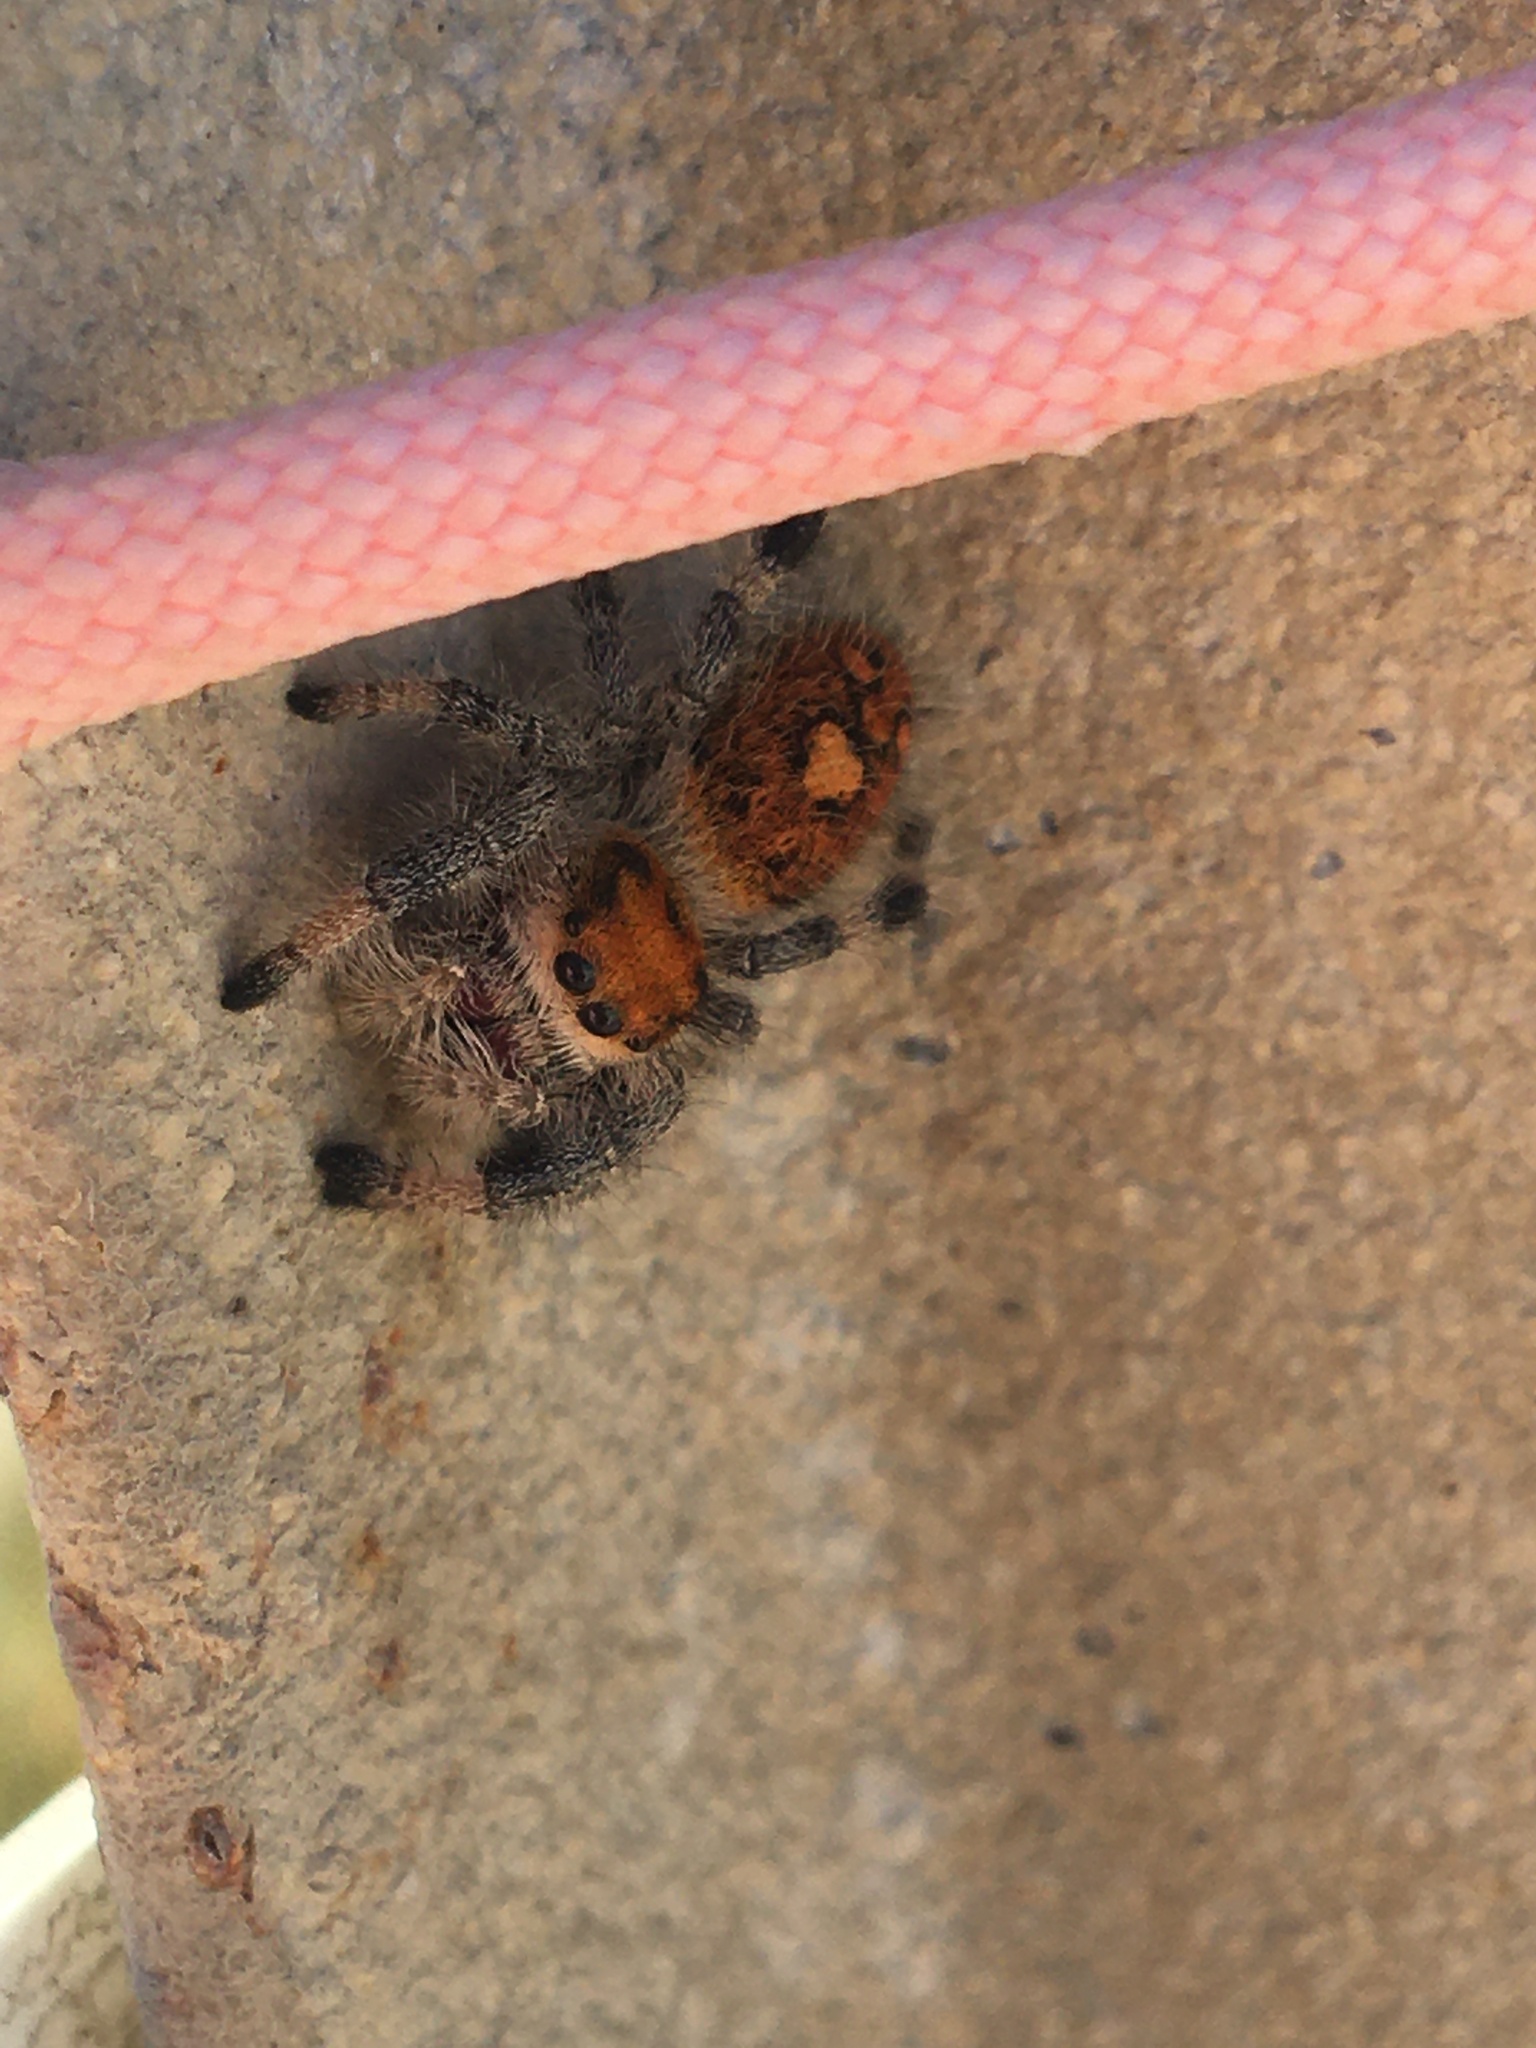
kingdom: Animalia
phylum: Arthropoda
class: Arachnida
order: Araneae
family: Salticidae
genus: Phidippus
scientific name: Phidippus regius
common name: Regal jumper
